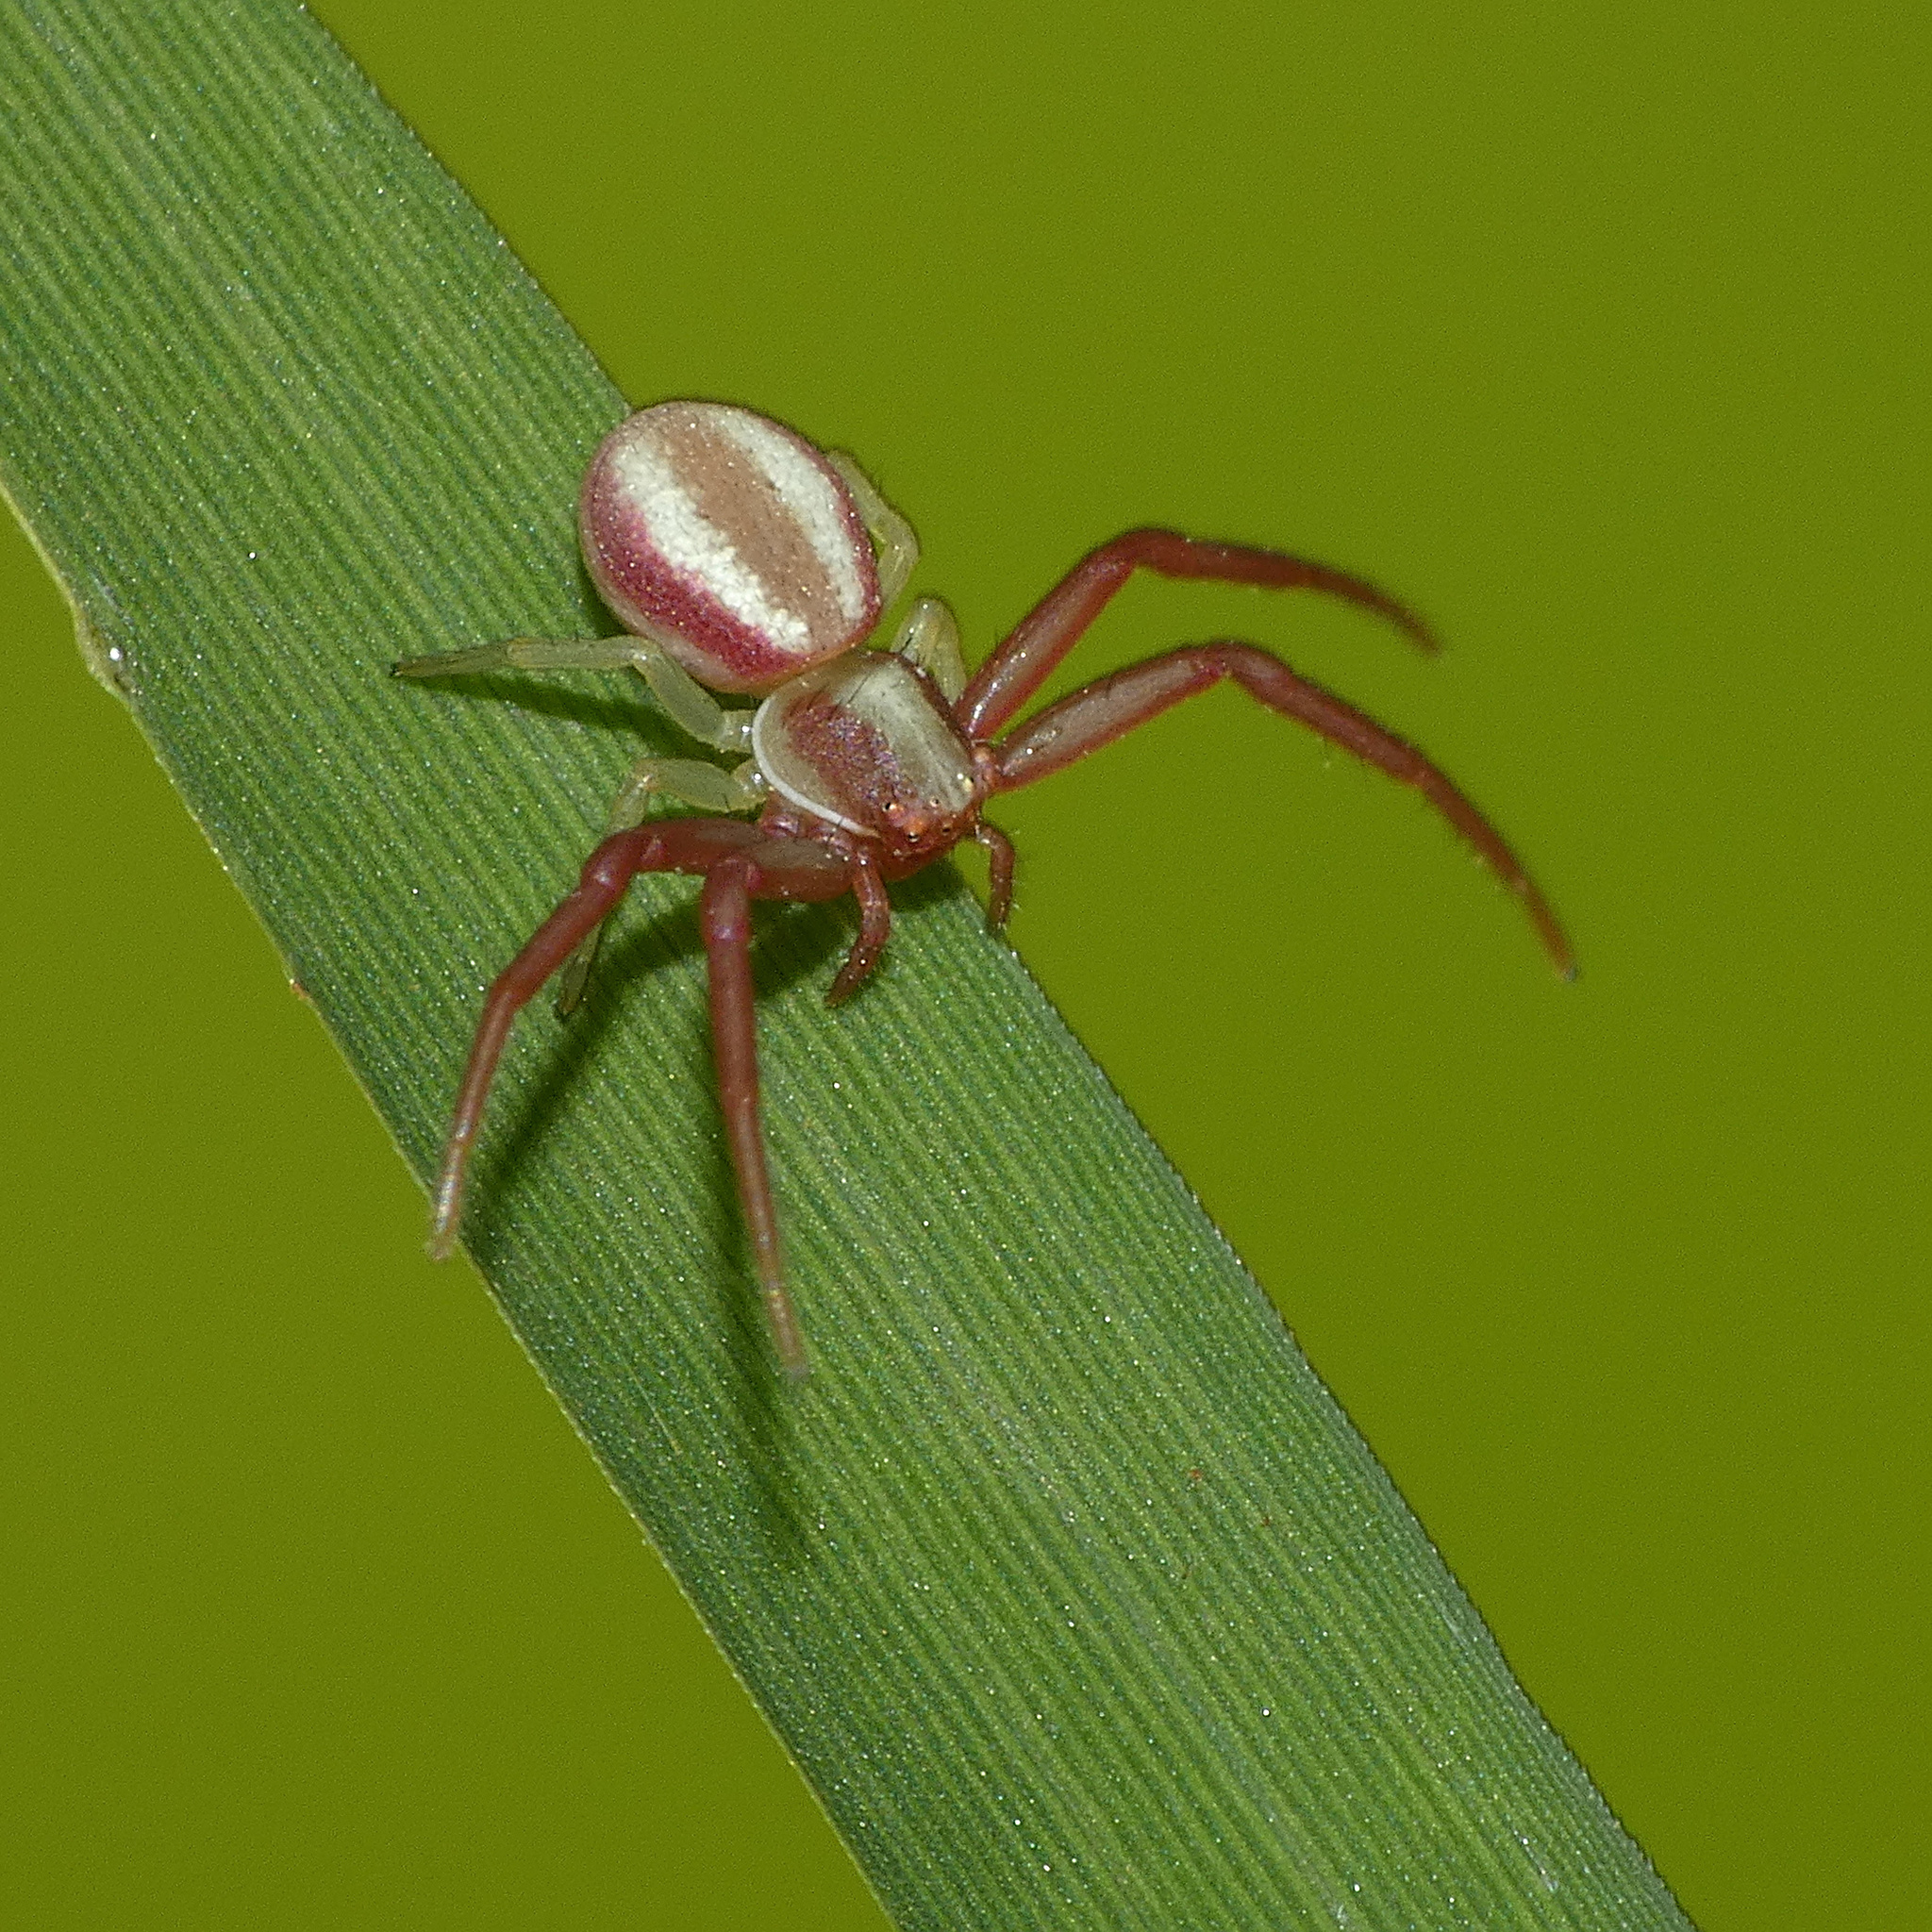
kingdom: Animalia
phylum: Arthropoda
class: Arachnida
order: Araneae
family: Thomisidae
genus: Misumenops
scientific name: Misumenops rubrodecoratus
